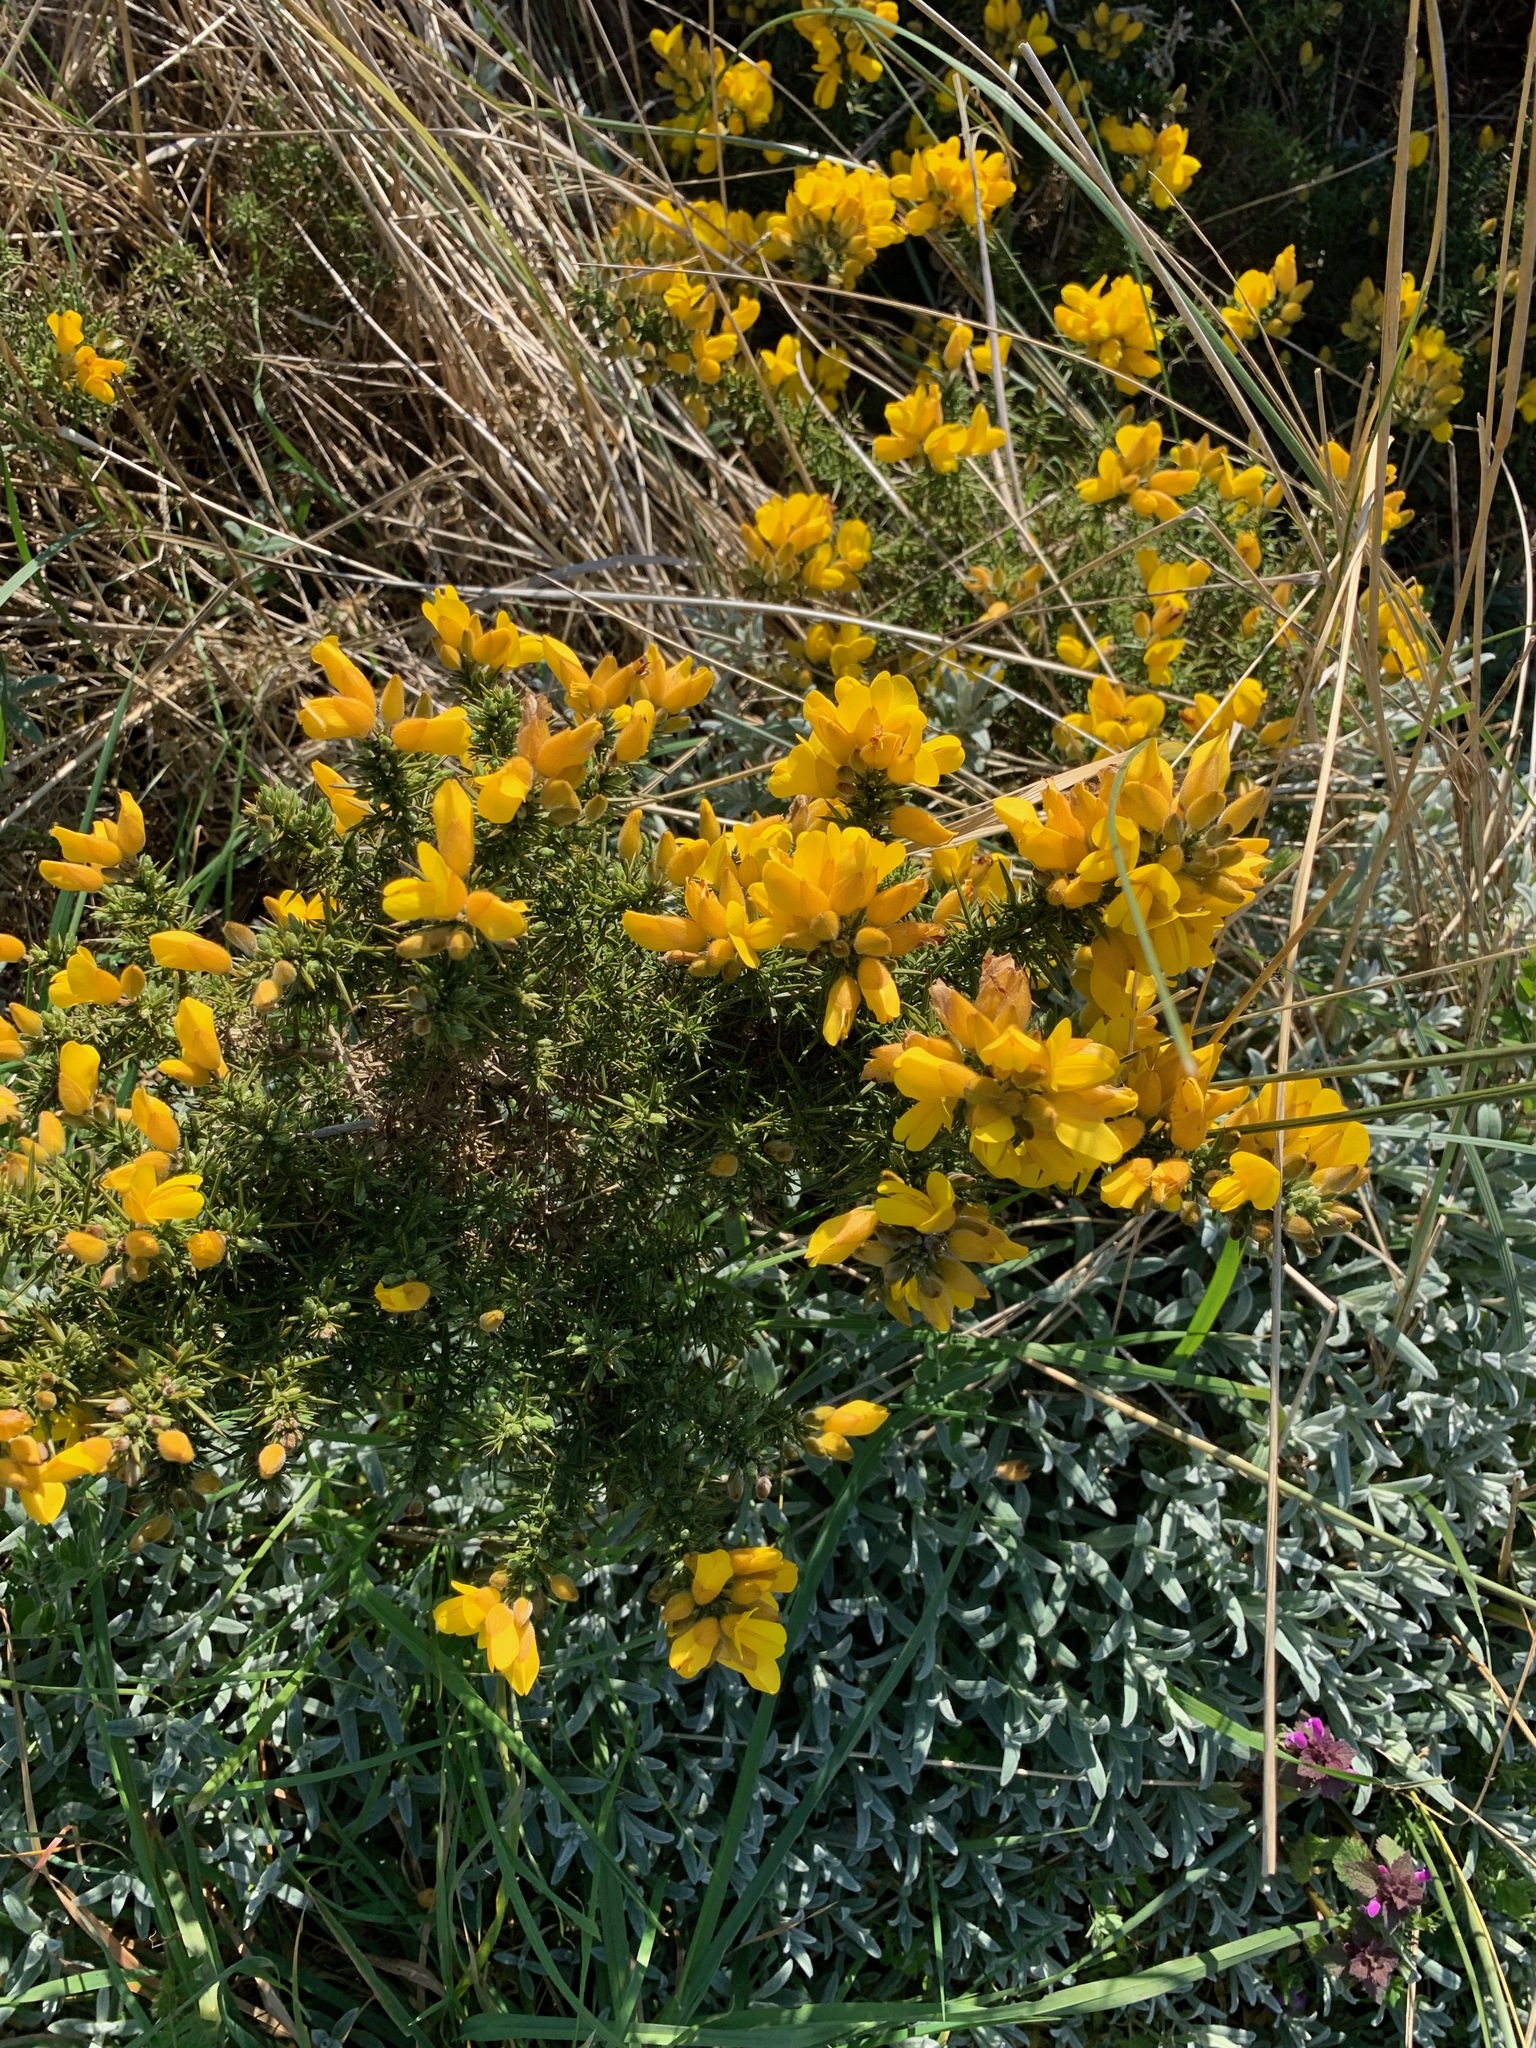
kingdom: Plantae
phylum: Tracheophyta
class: Magnoliopsida
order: Fabales
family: Fabaceae
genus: Ulex
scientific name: Ulex europaeus
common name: Common gorse
